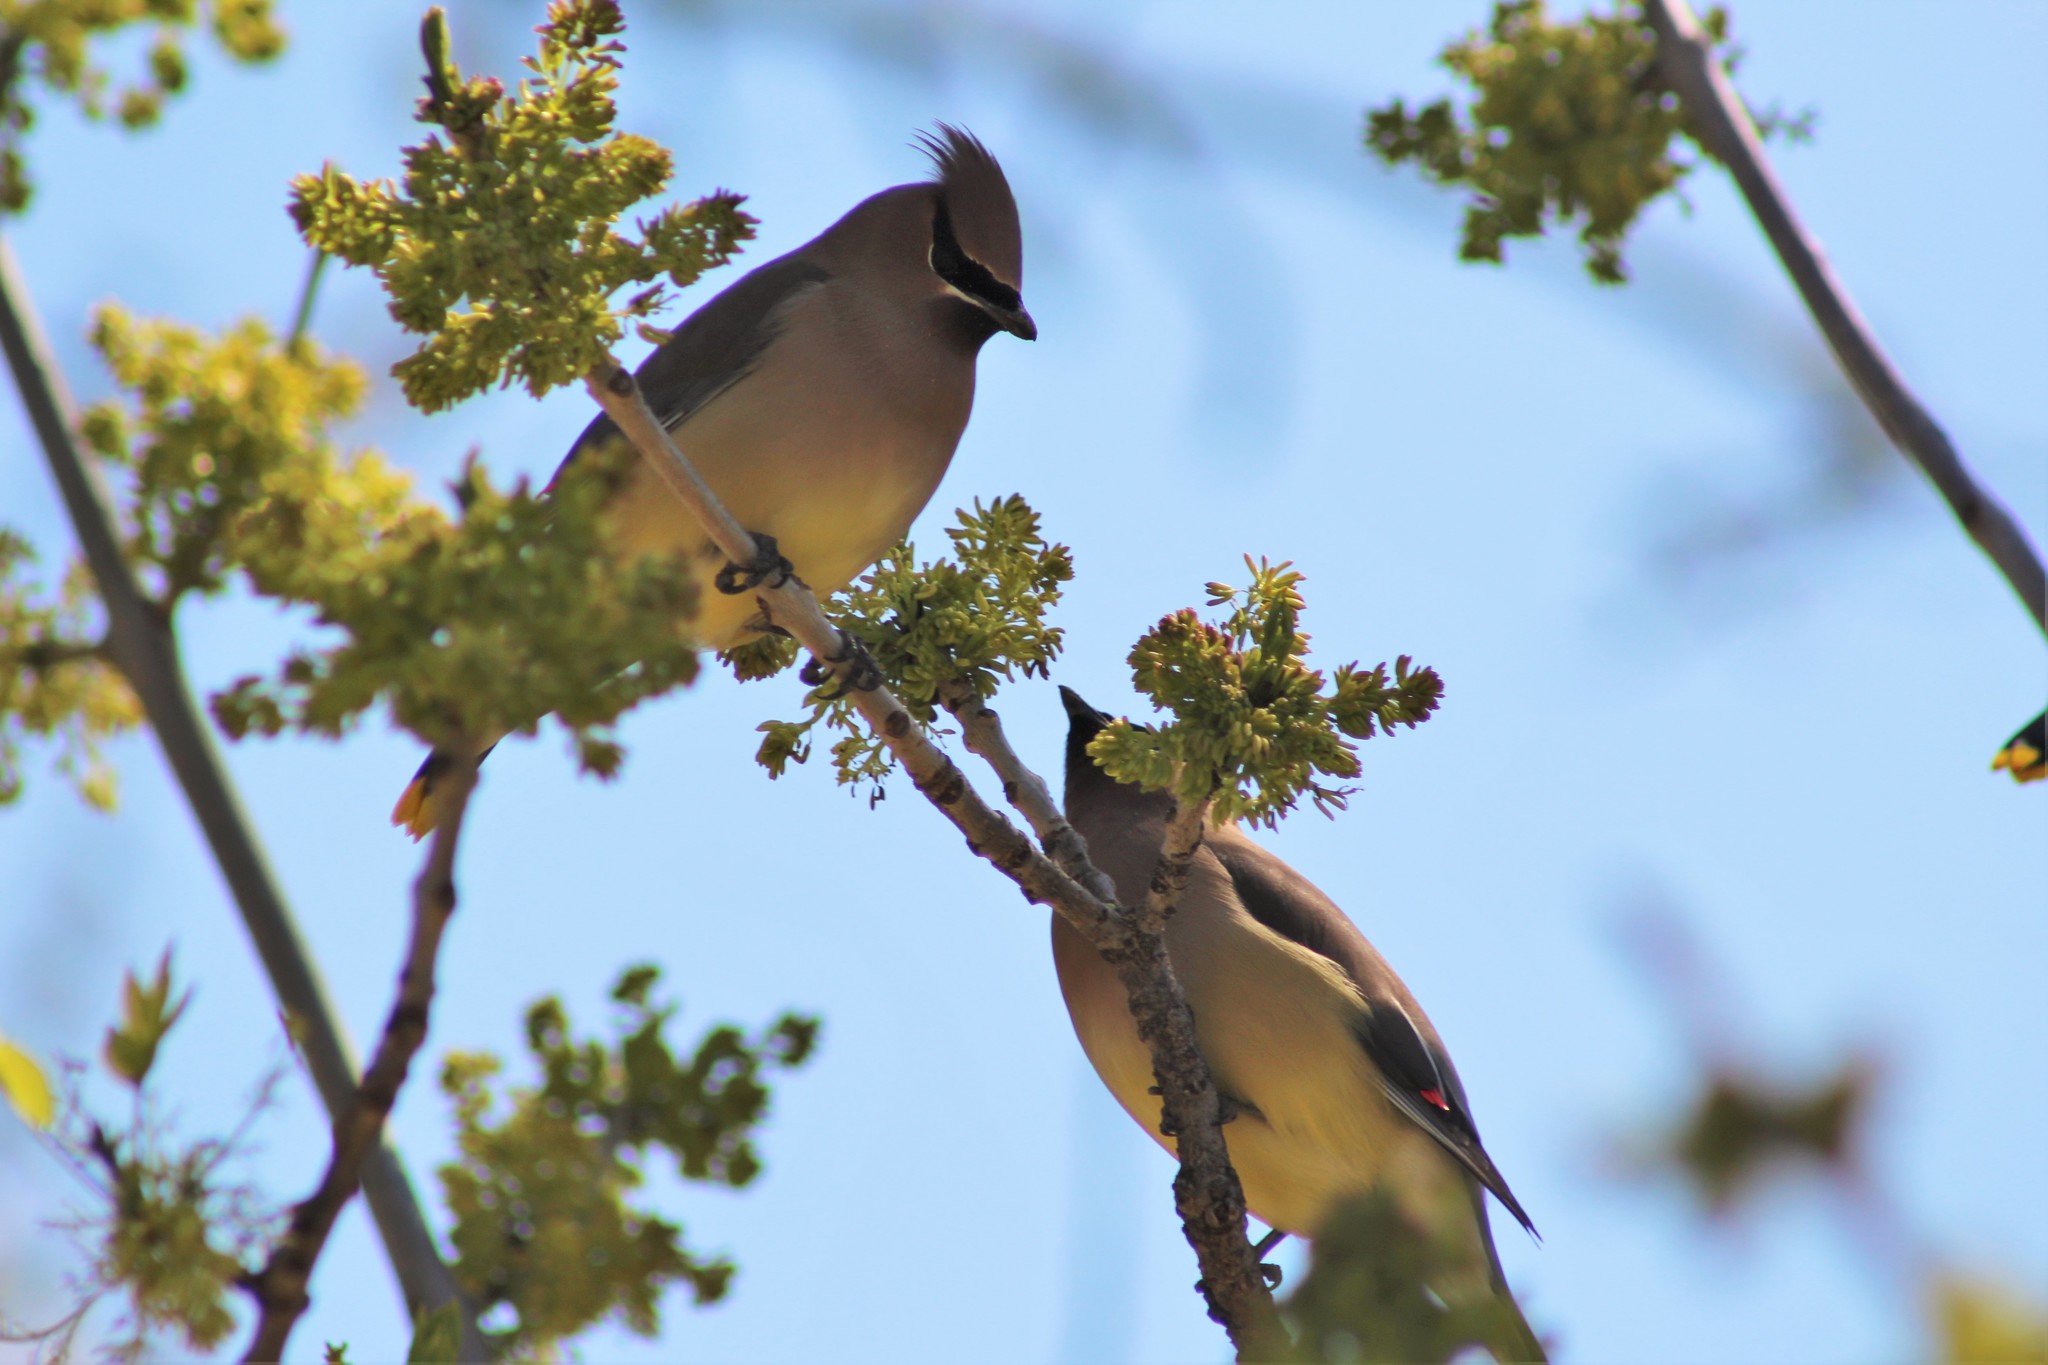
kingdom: Animalia
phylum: Chordata
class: Aves
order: Passeriformes
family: Bombycillidae
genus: Bombycilla
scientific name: Bombycilla cedrorum
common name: Cedar waxwing
